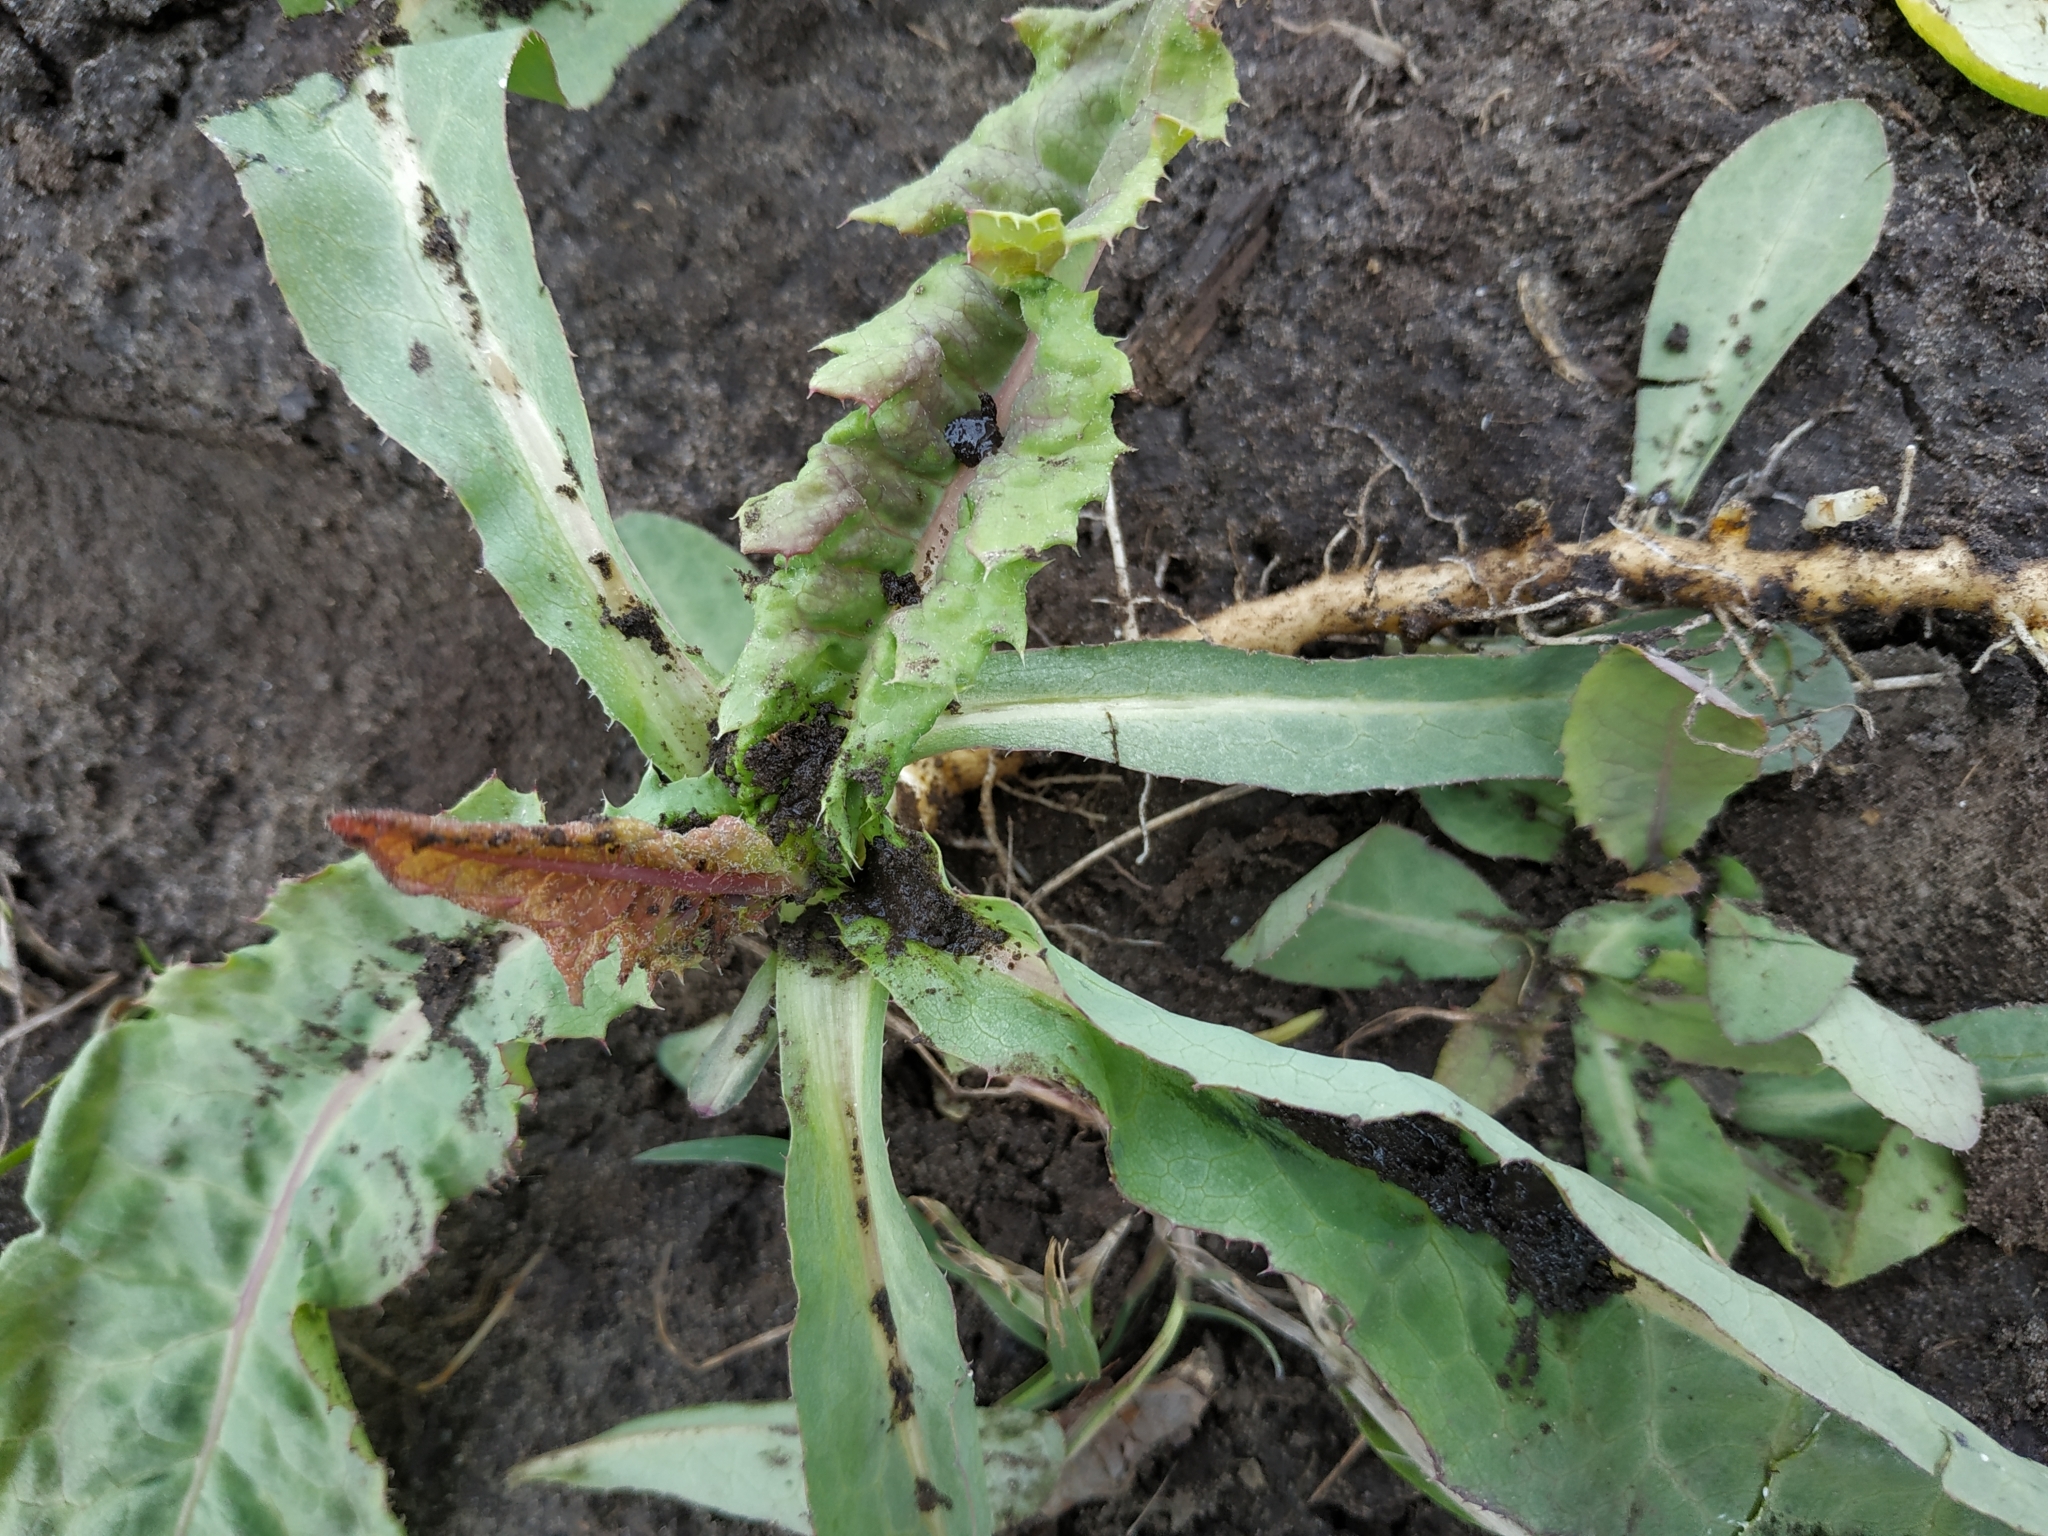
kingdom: Plantae
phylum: Tracheophyta
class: Magnoliopsida
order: Asterales
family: Asteraceae
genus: Sonchus
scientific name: Sonchus arvensis
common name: Perennial sow-thistle
